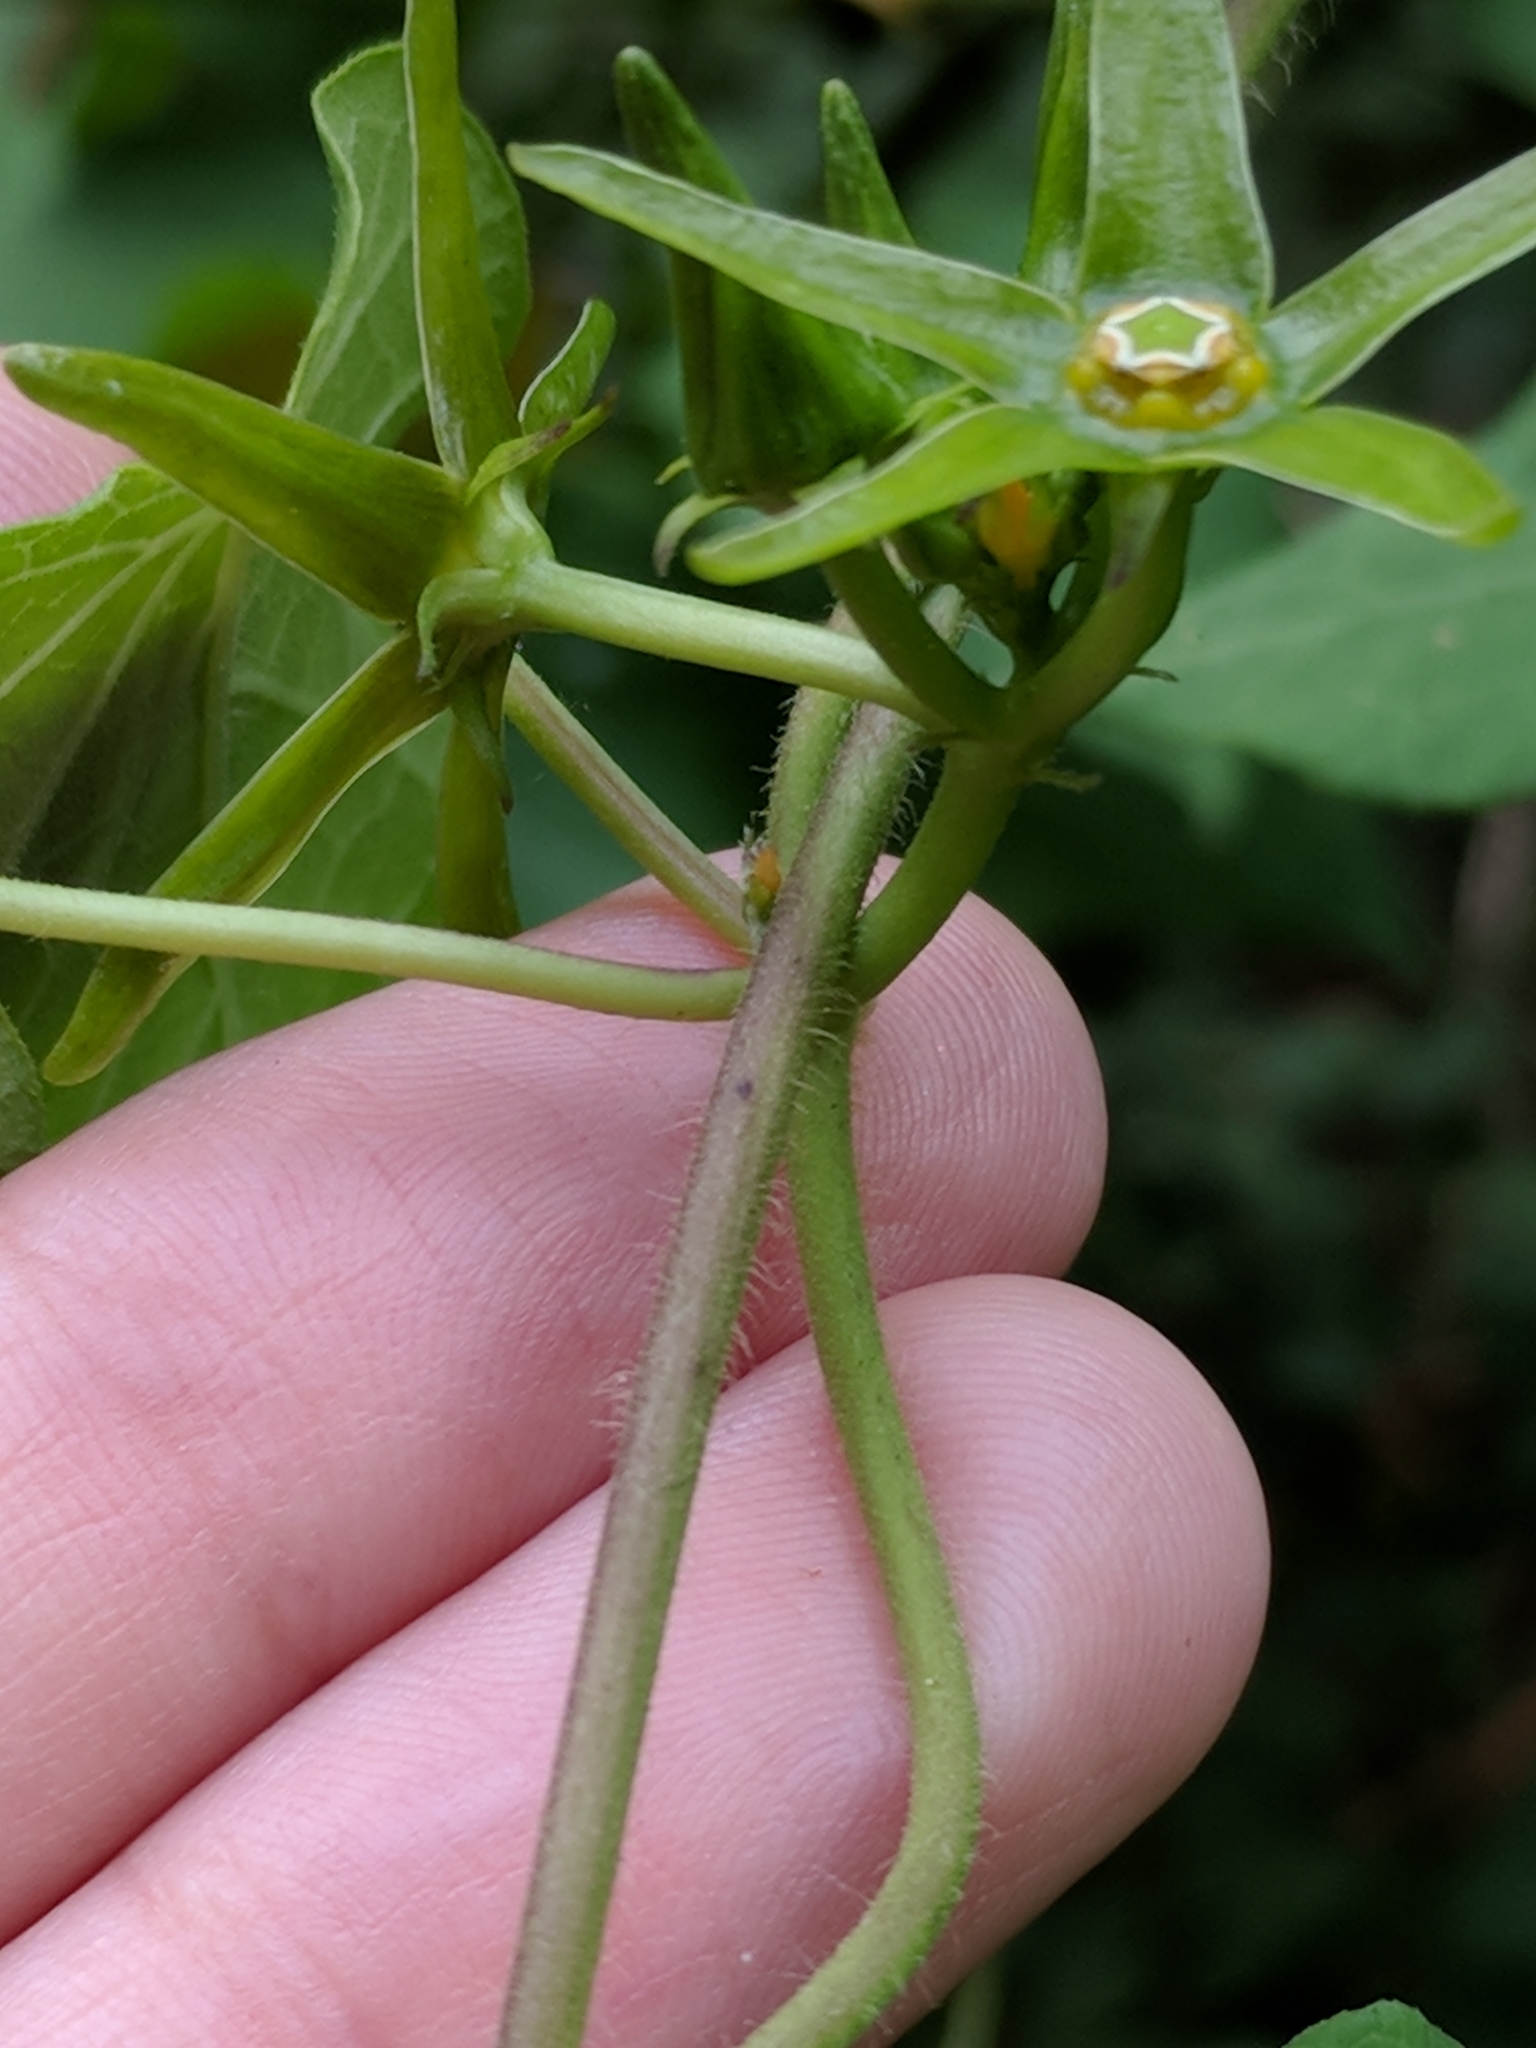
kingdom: Plantae
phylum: Tracheophyta
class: Magnoliopsida
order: Gentianales
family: Apocynaceae
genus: Gonolobus
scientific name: Gonolobus suberosus
